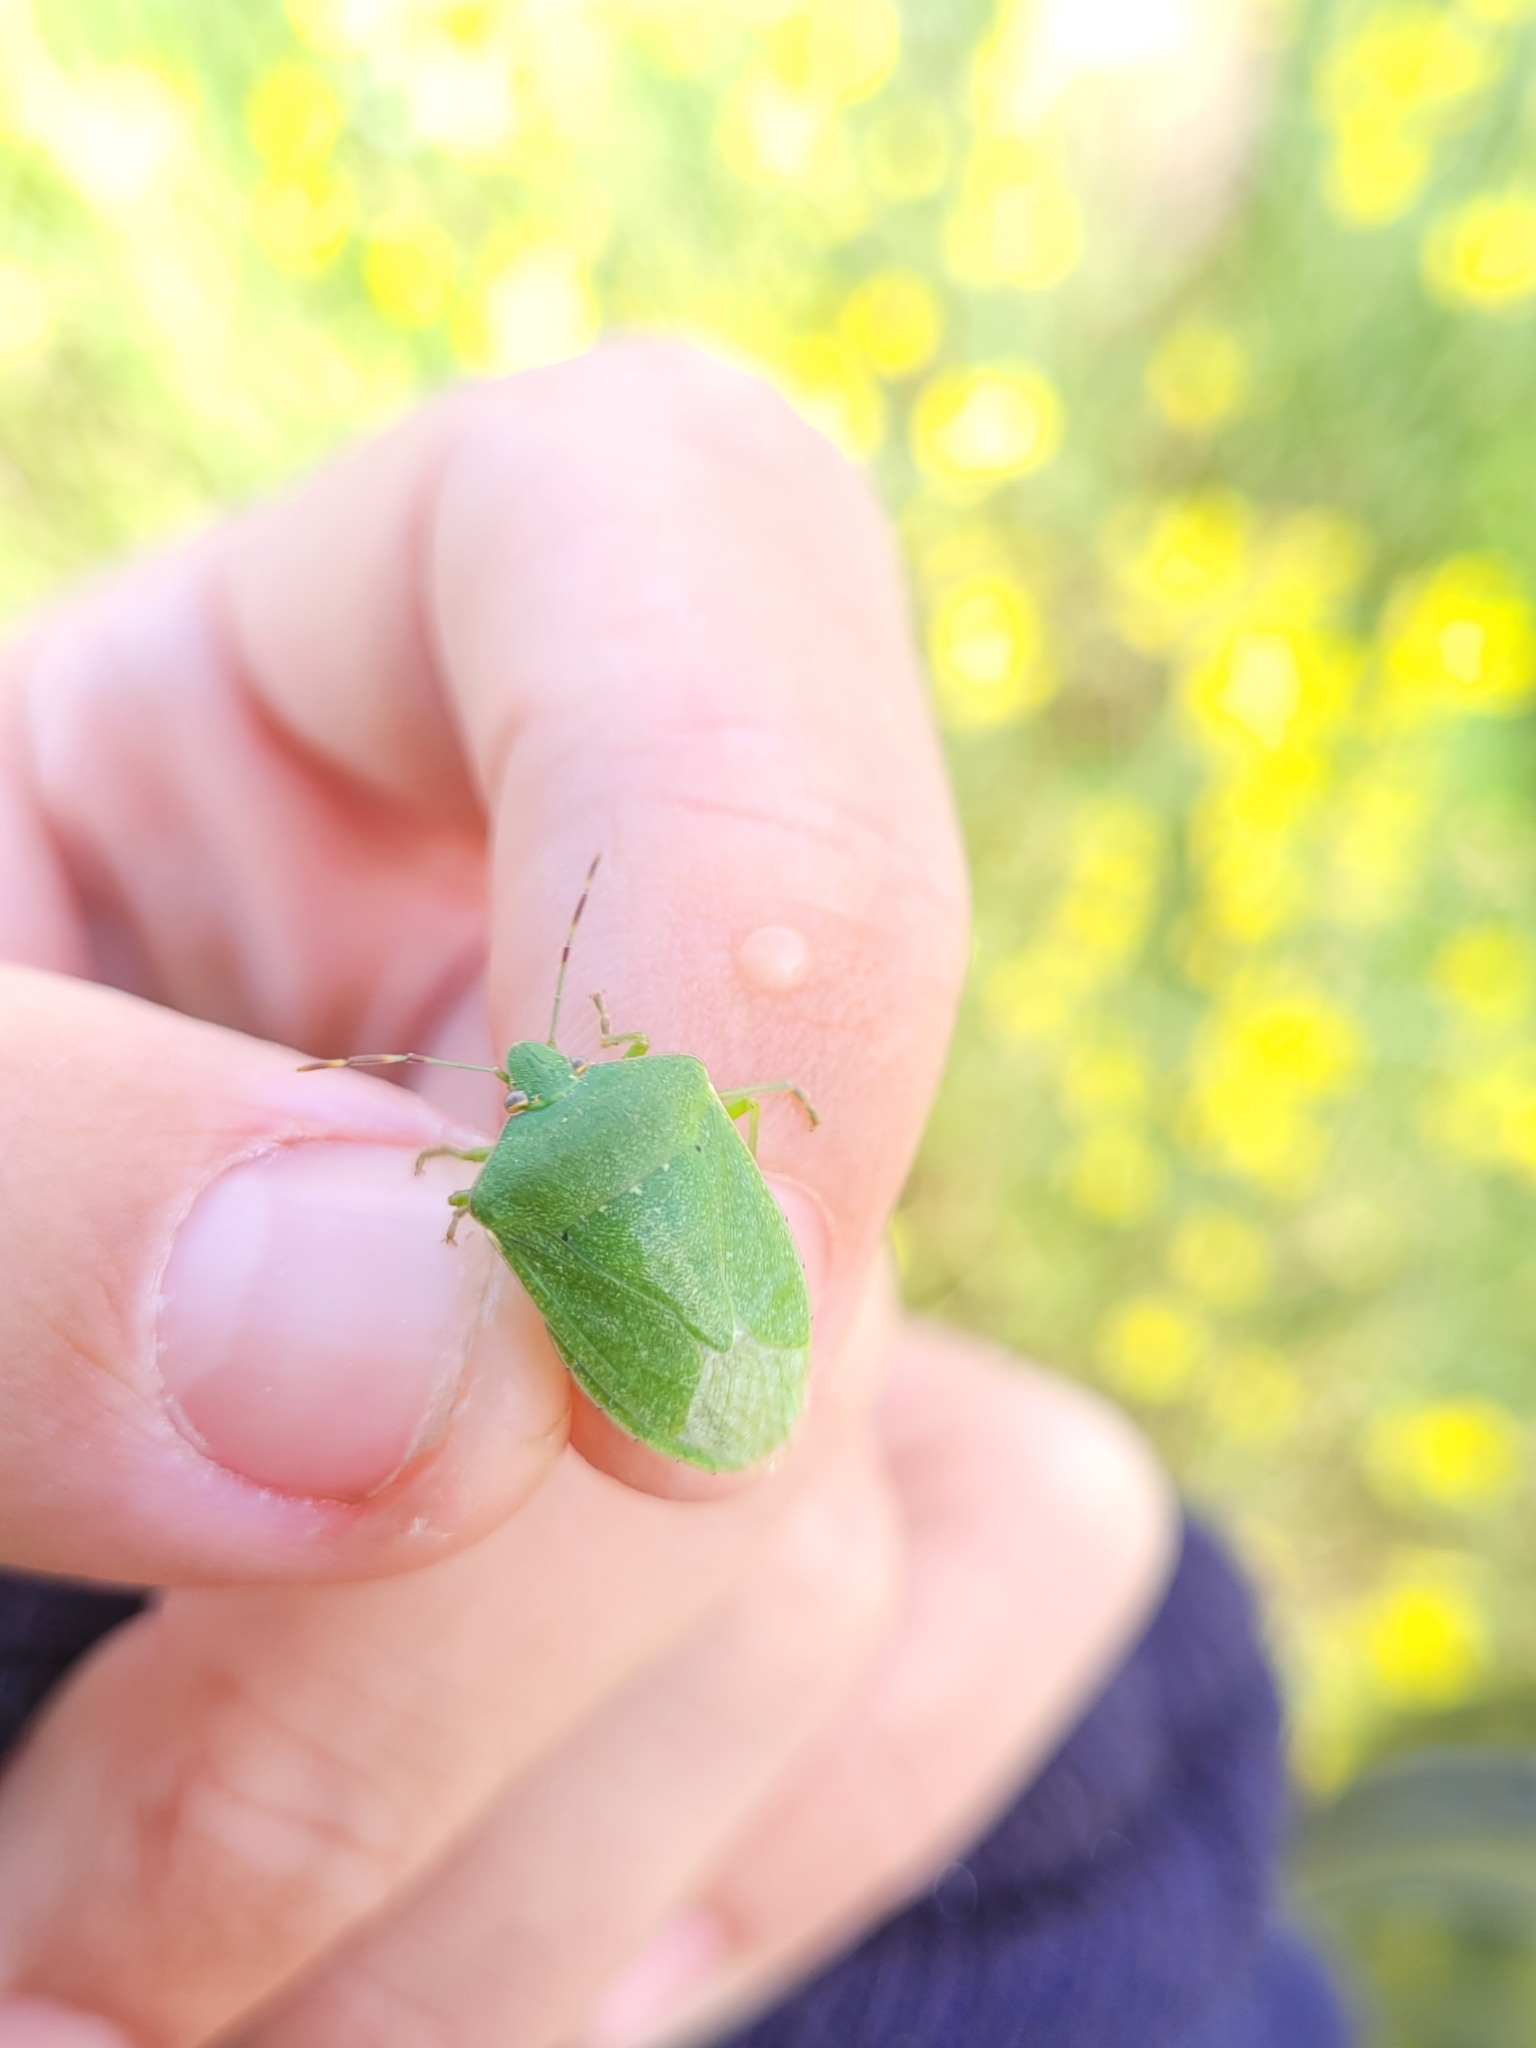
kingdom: Animalia
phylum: Arthropoda
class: Insecta
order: Hemiptera
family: Pentatomidae
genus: Nezara
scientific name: Nezara viridula
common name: Southern green stink bug
